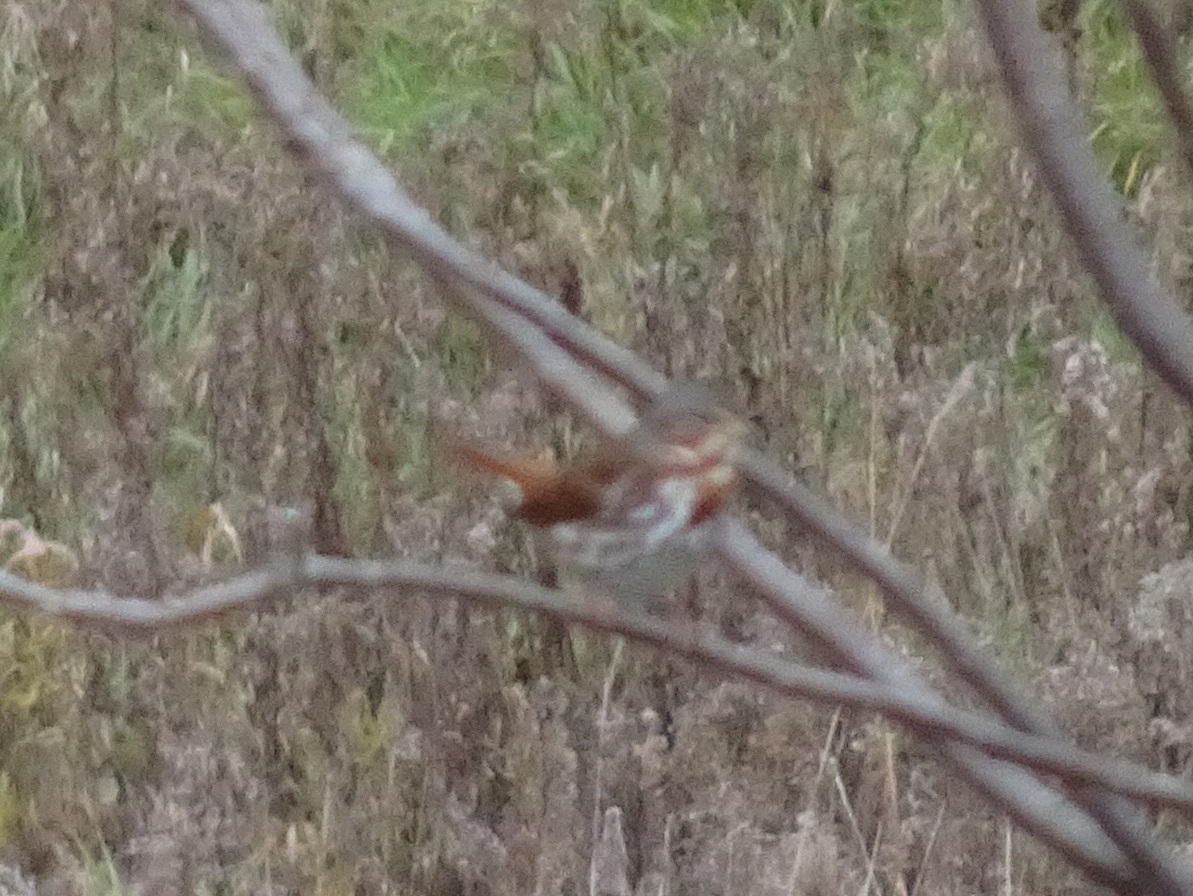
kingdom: Animalia
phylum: Chordata
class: Aves
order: Passeriformes
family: Passerellidae
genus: Passerella
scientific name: Passerella iliaca
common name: Fox sparrow
